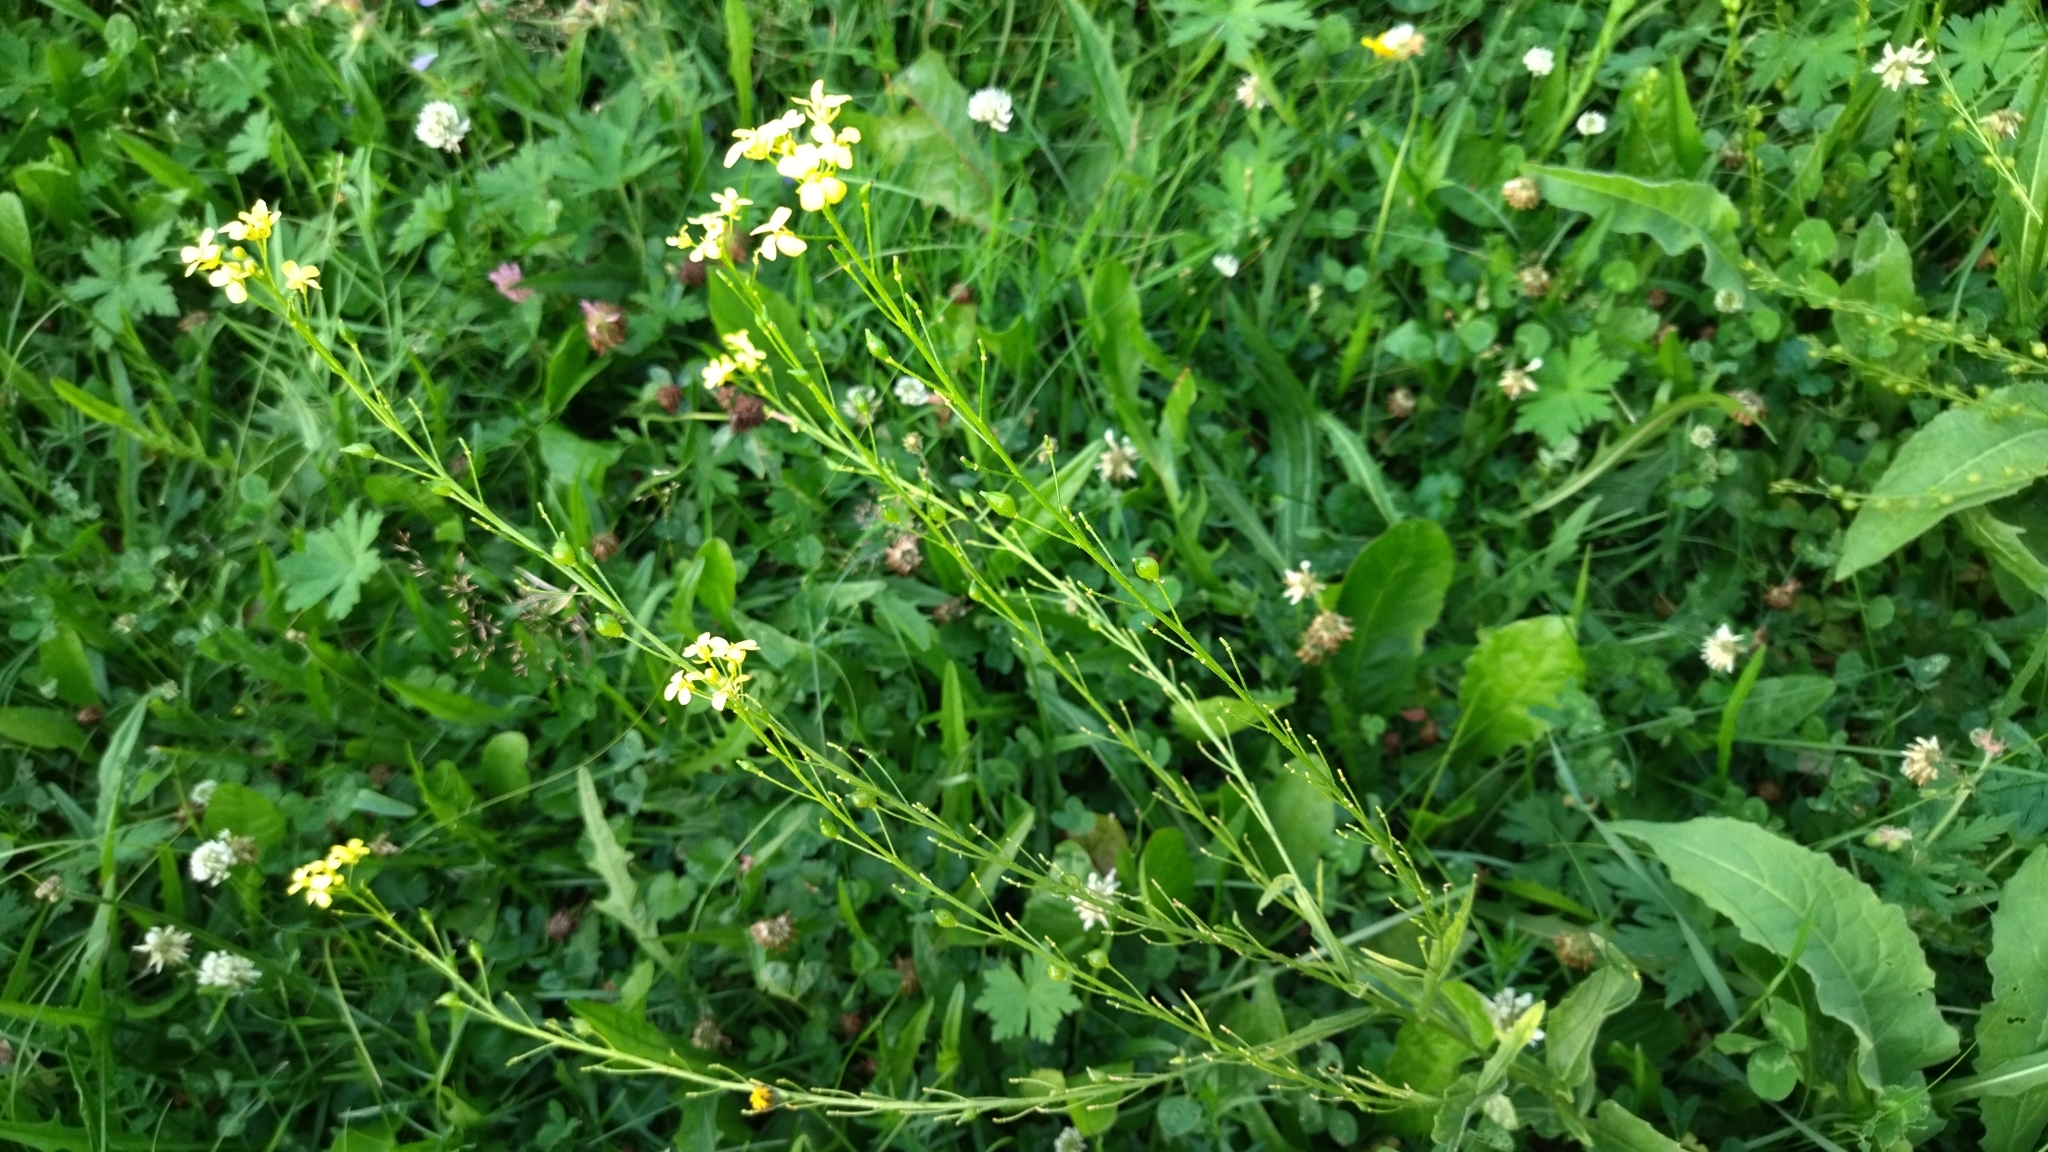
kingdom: Plantae
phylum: Tracheophyta
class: Magnoliopsida
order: Brassicales
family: Brassicaceae
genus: Bunias
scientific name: Bunias orientalis
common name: Warty-cabbage
